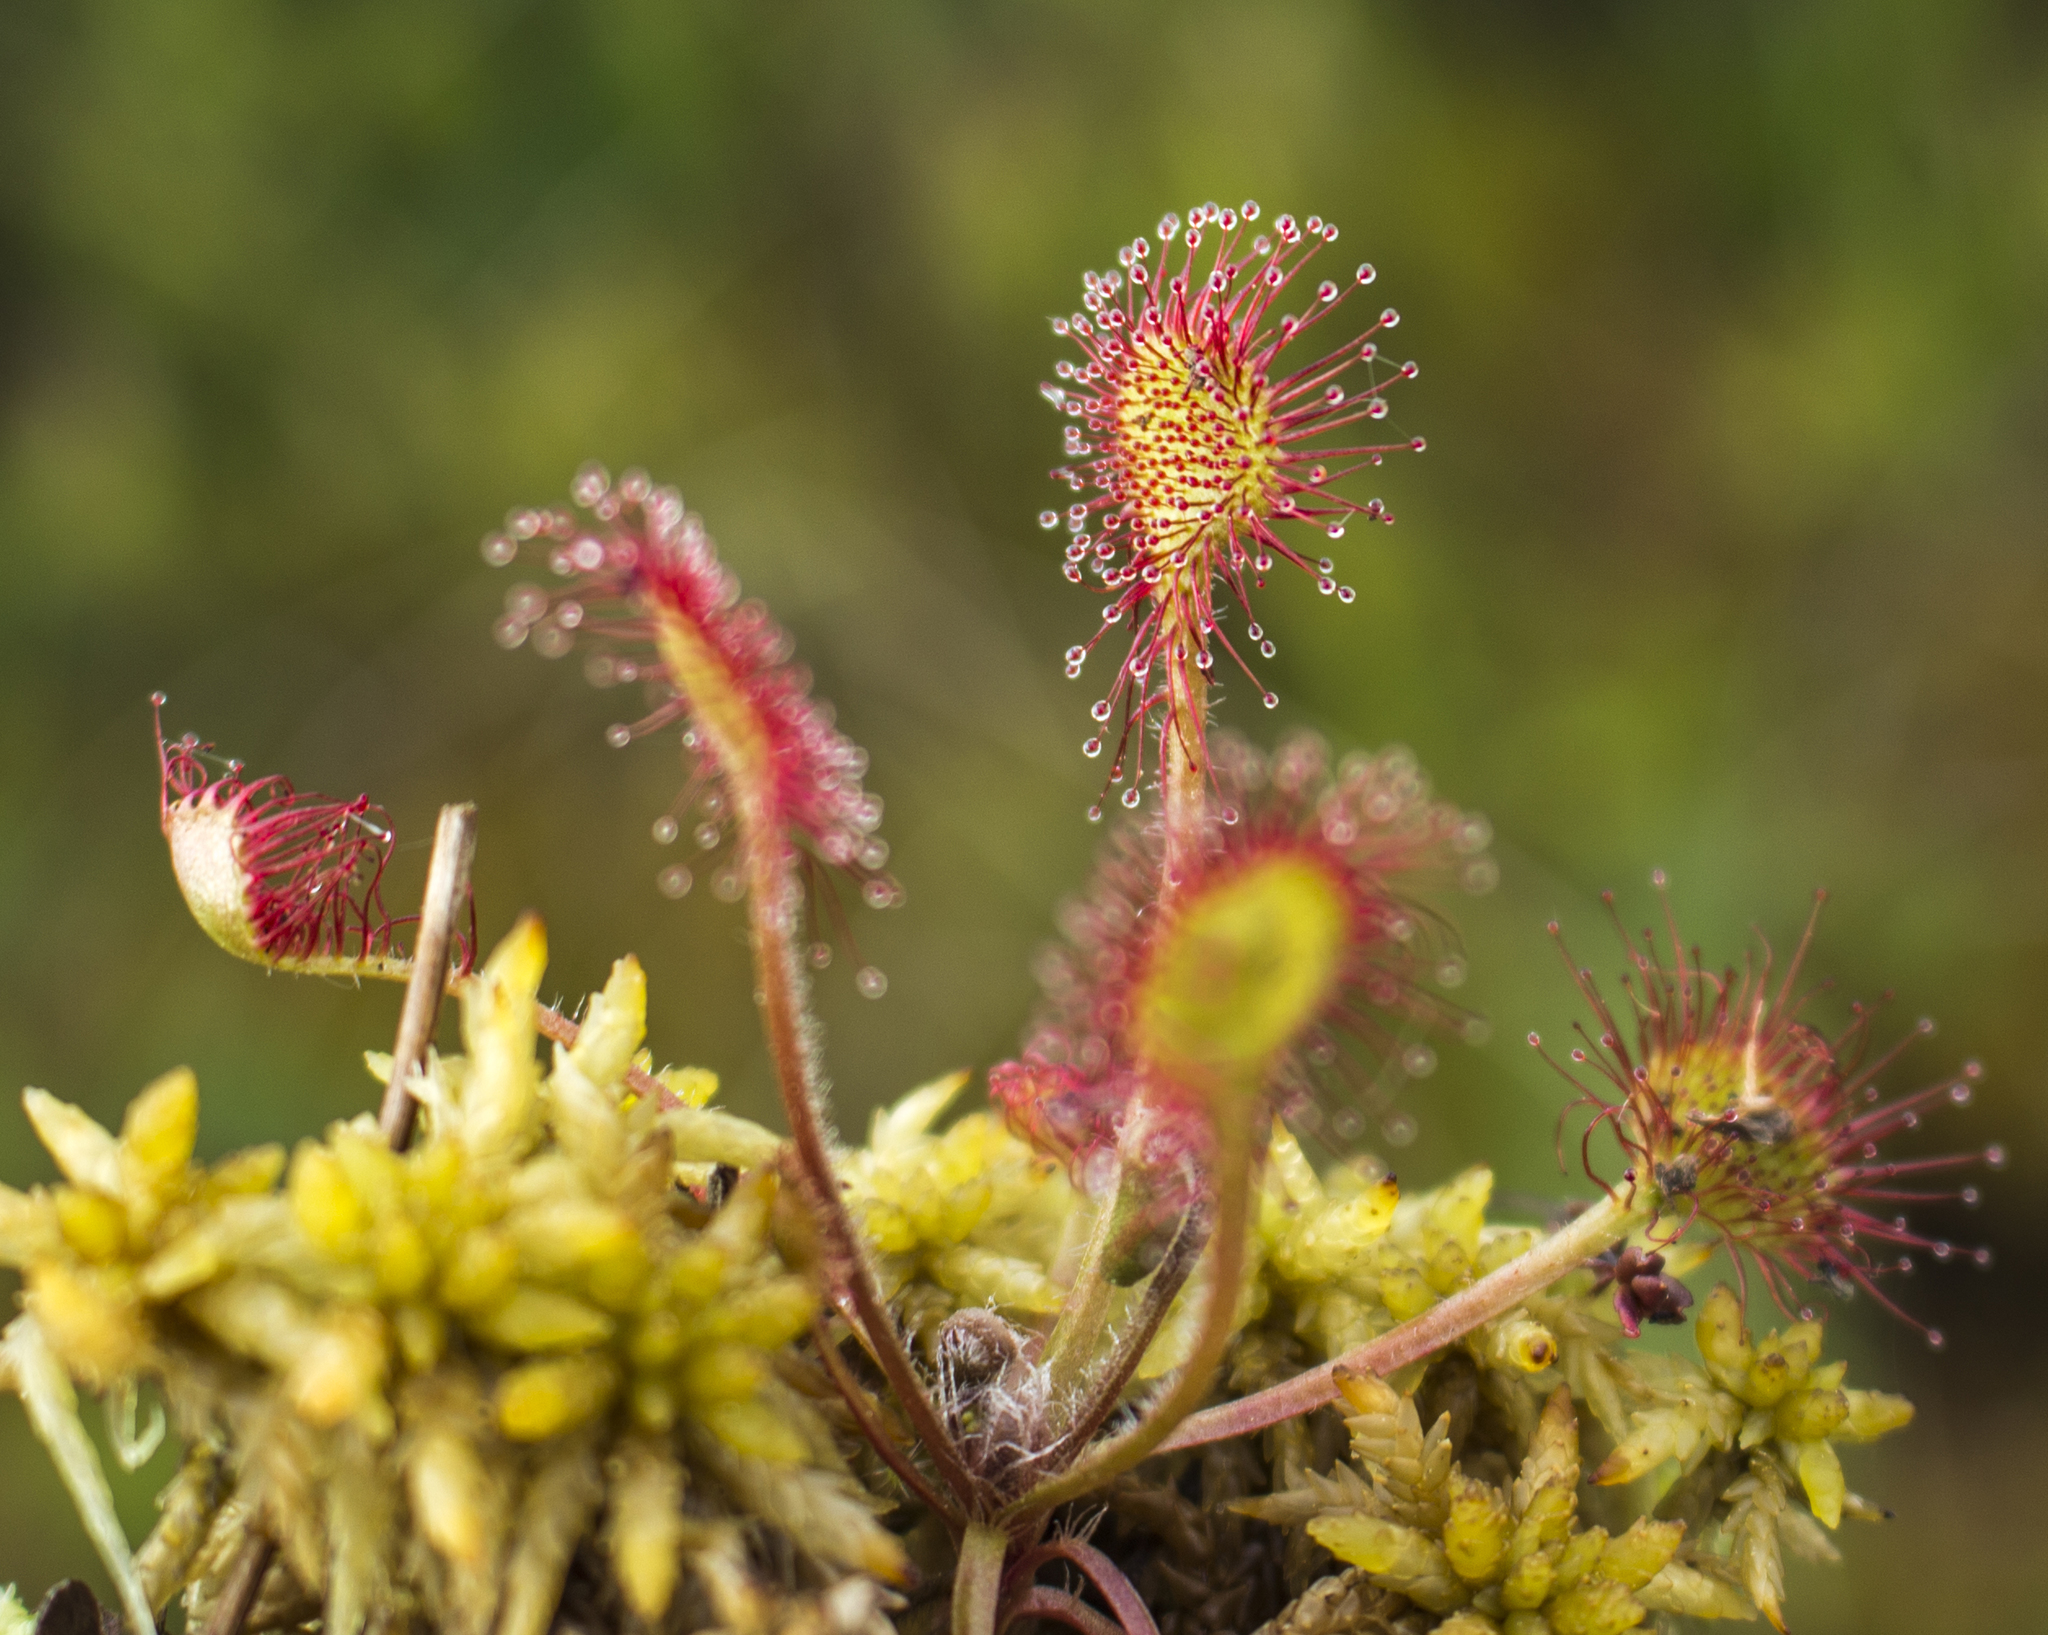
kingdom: Plantae
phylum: Tracheophyta
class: Magnoliopsida
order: Caryophyllales
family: Droseraceae
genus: Drosera
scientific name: Drosera rotundifolia
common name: Round-leaved sundew
